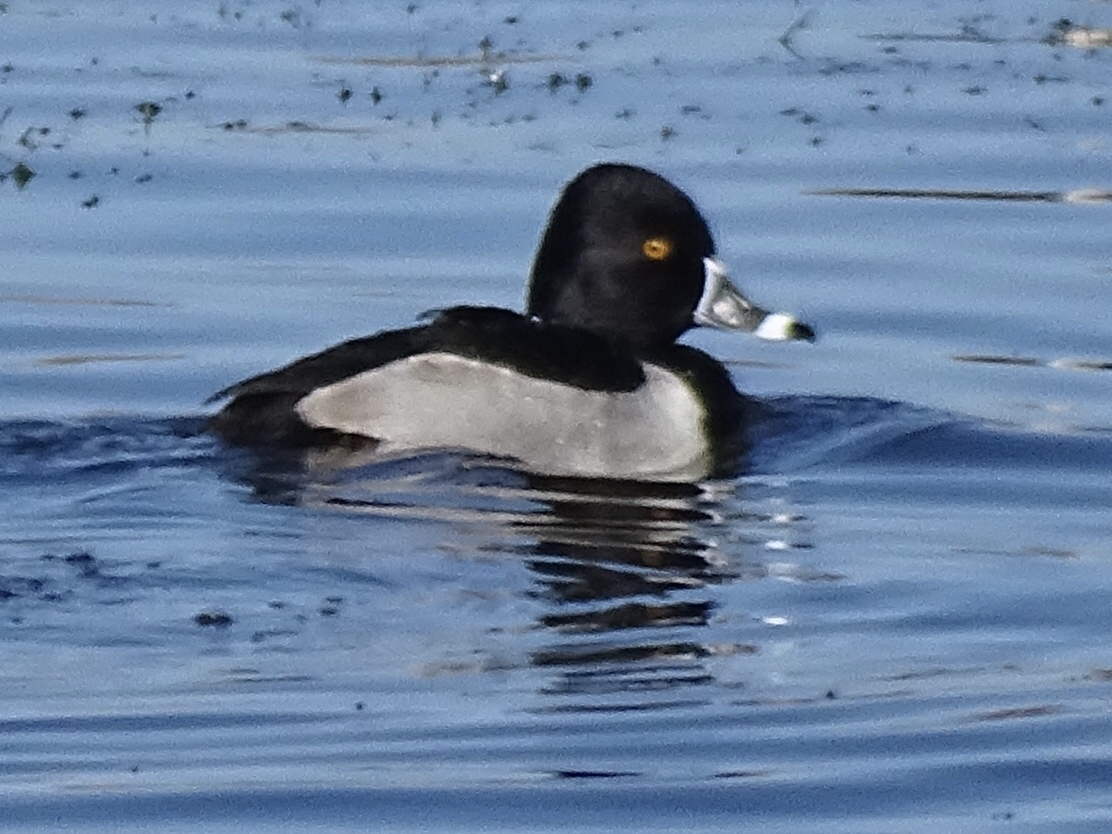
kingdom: Animalia
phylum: Chordata
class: Aves
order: Anseriformes
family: Anatidae
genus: Aythya
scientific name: Aythya collaris
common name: Ring-necked duck
